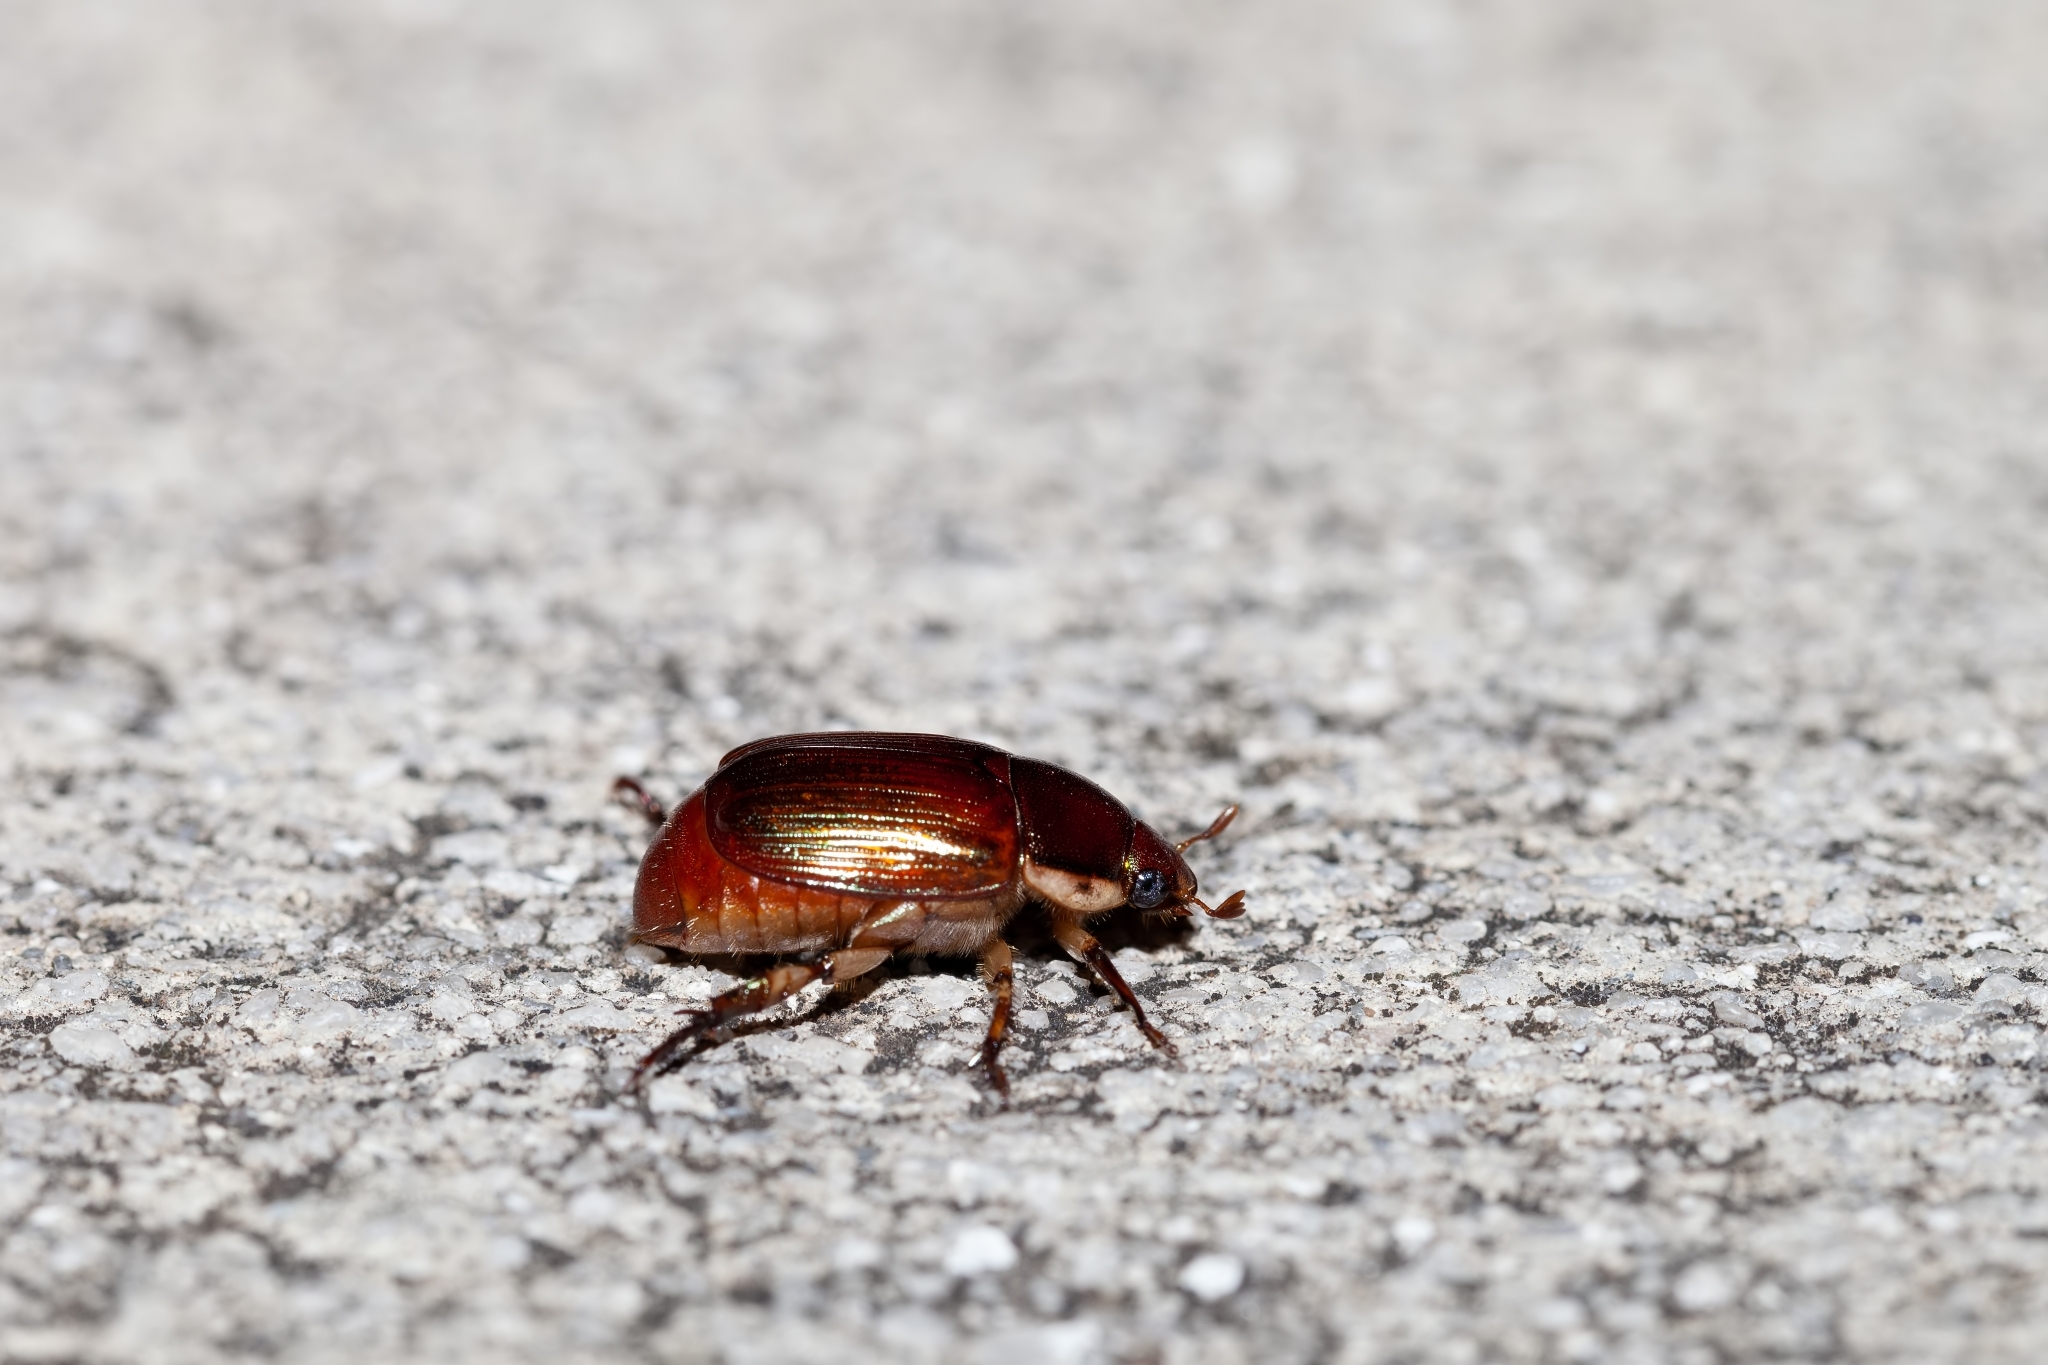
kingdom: Animalia
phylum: Arthropoda
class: Insecta
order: Coleoptera
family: Scarabaeidae
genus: Callistethus
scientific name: Callistethus marginatus
